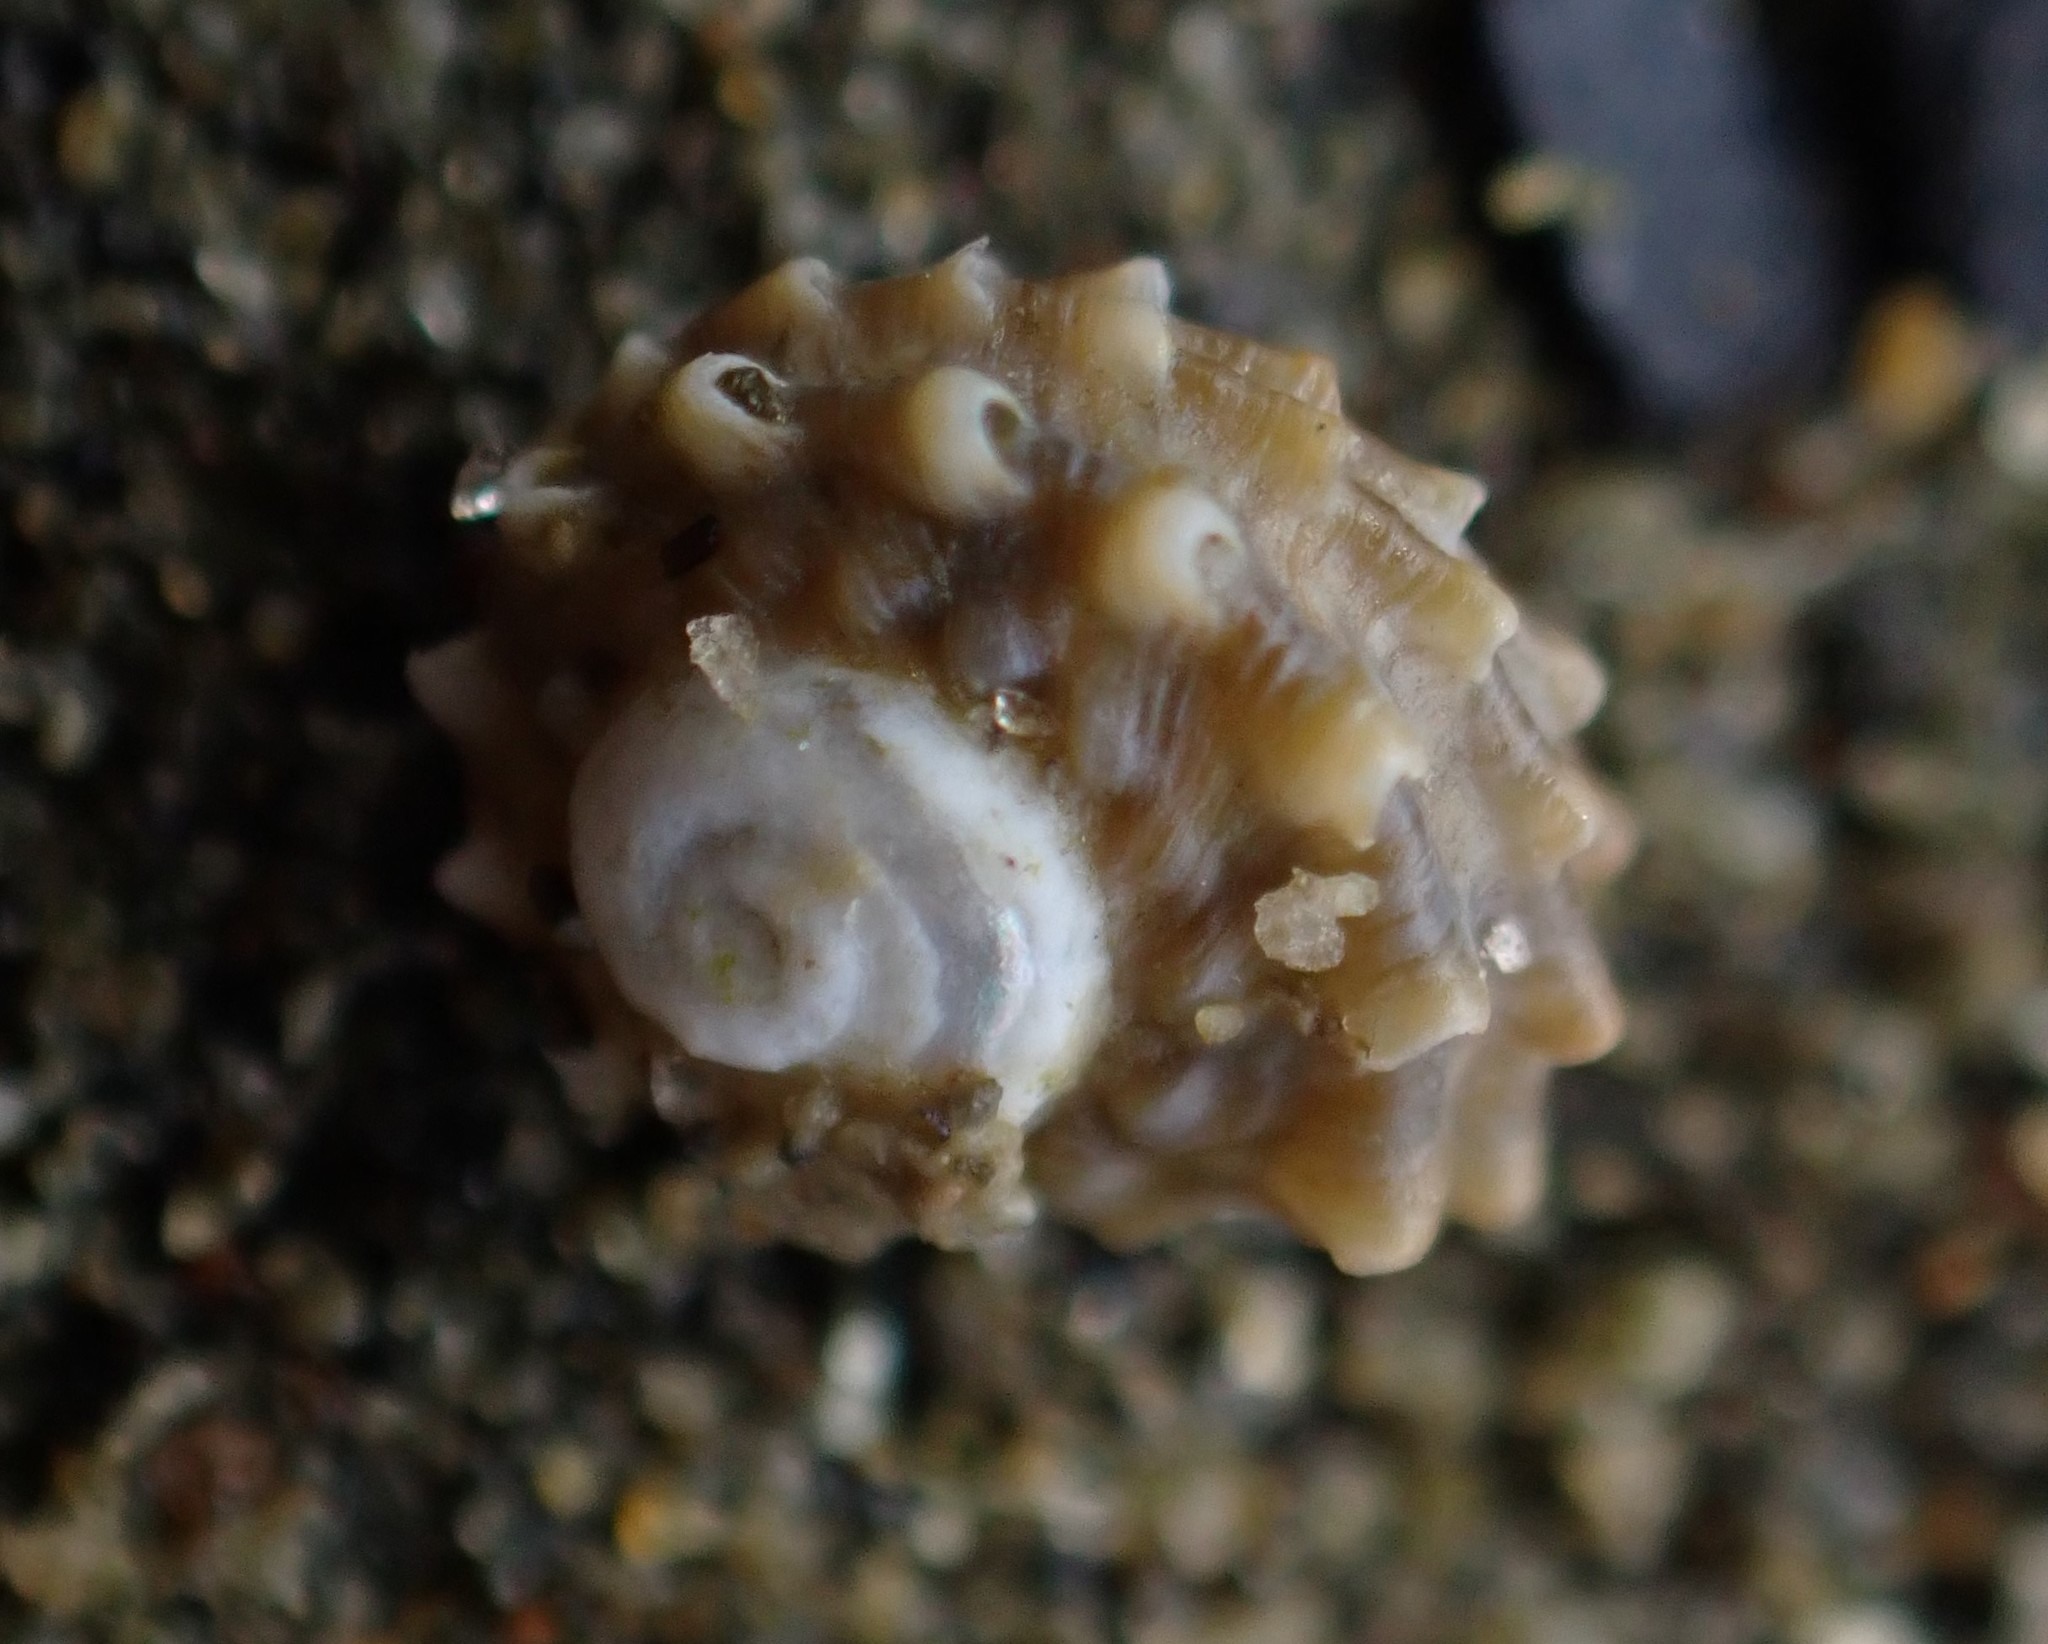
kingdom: Animalia
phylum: Mollusca
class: Gastropoda
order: Trochida
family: Turbinidae
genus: Lunella
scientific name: Lunella smaragda
